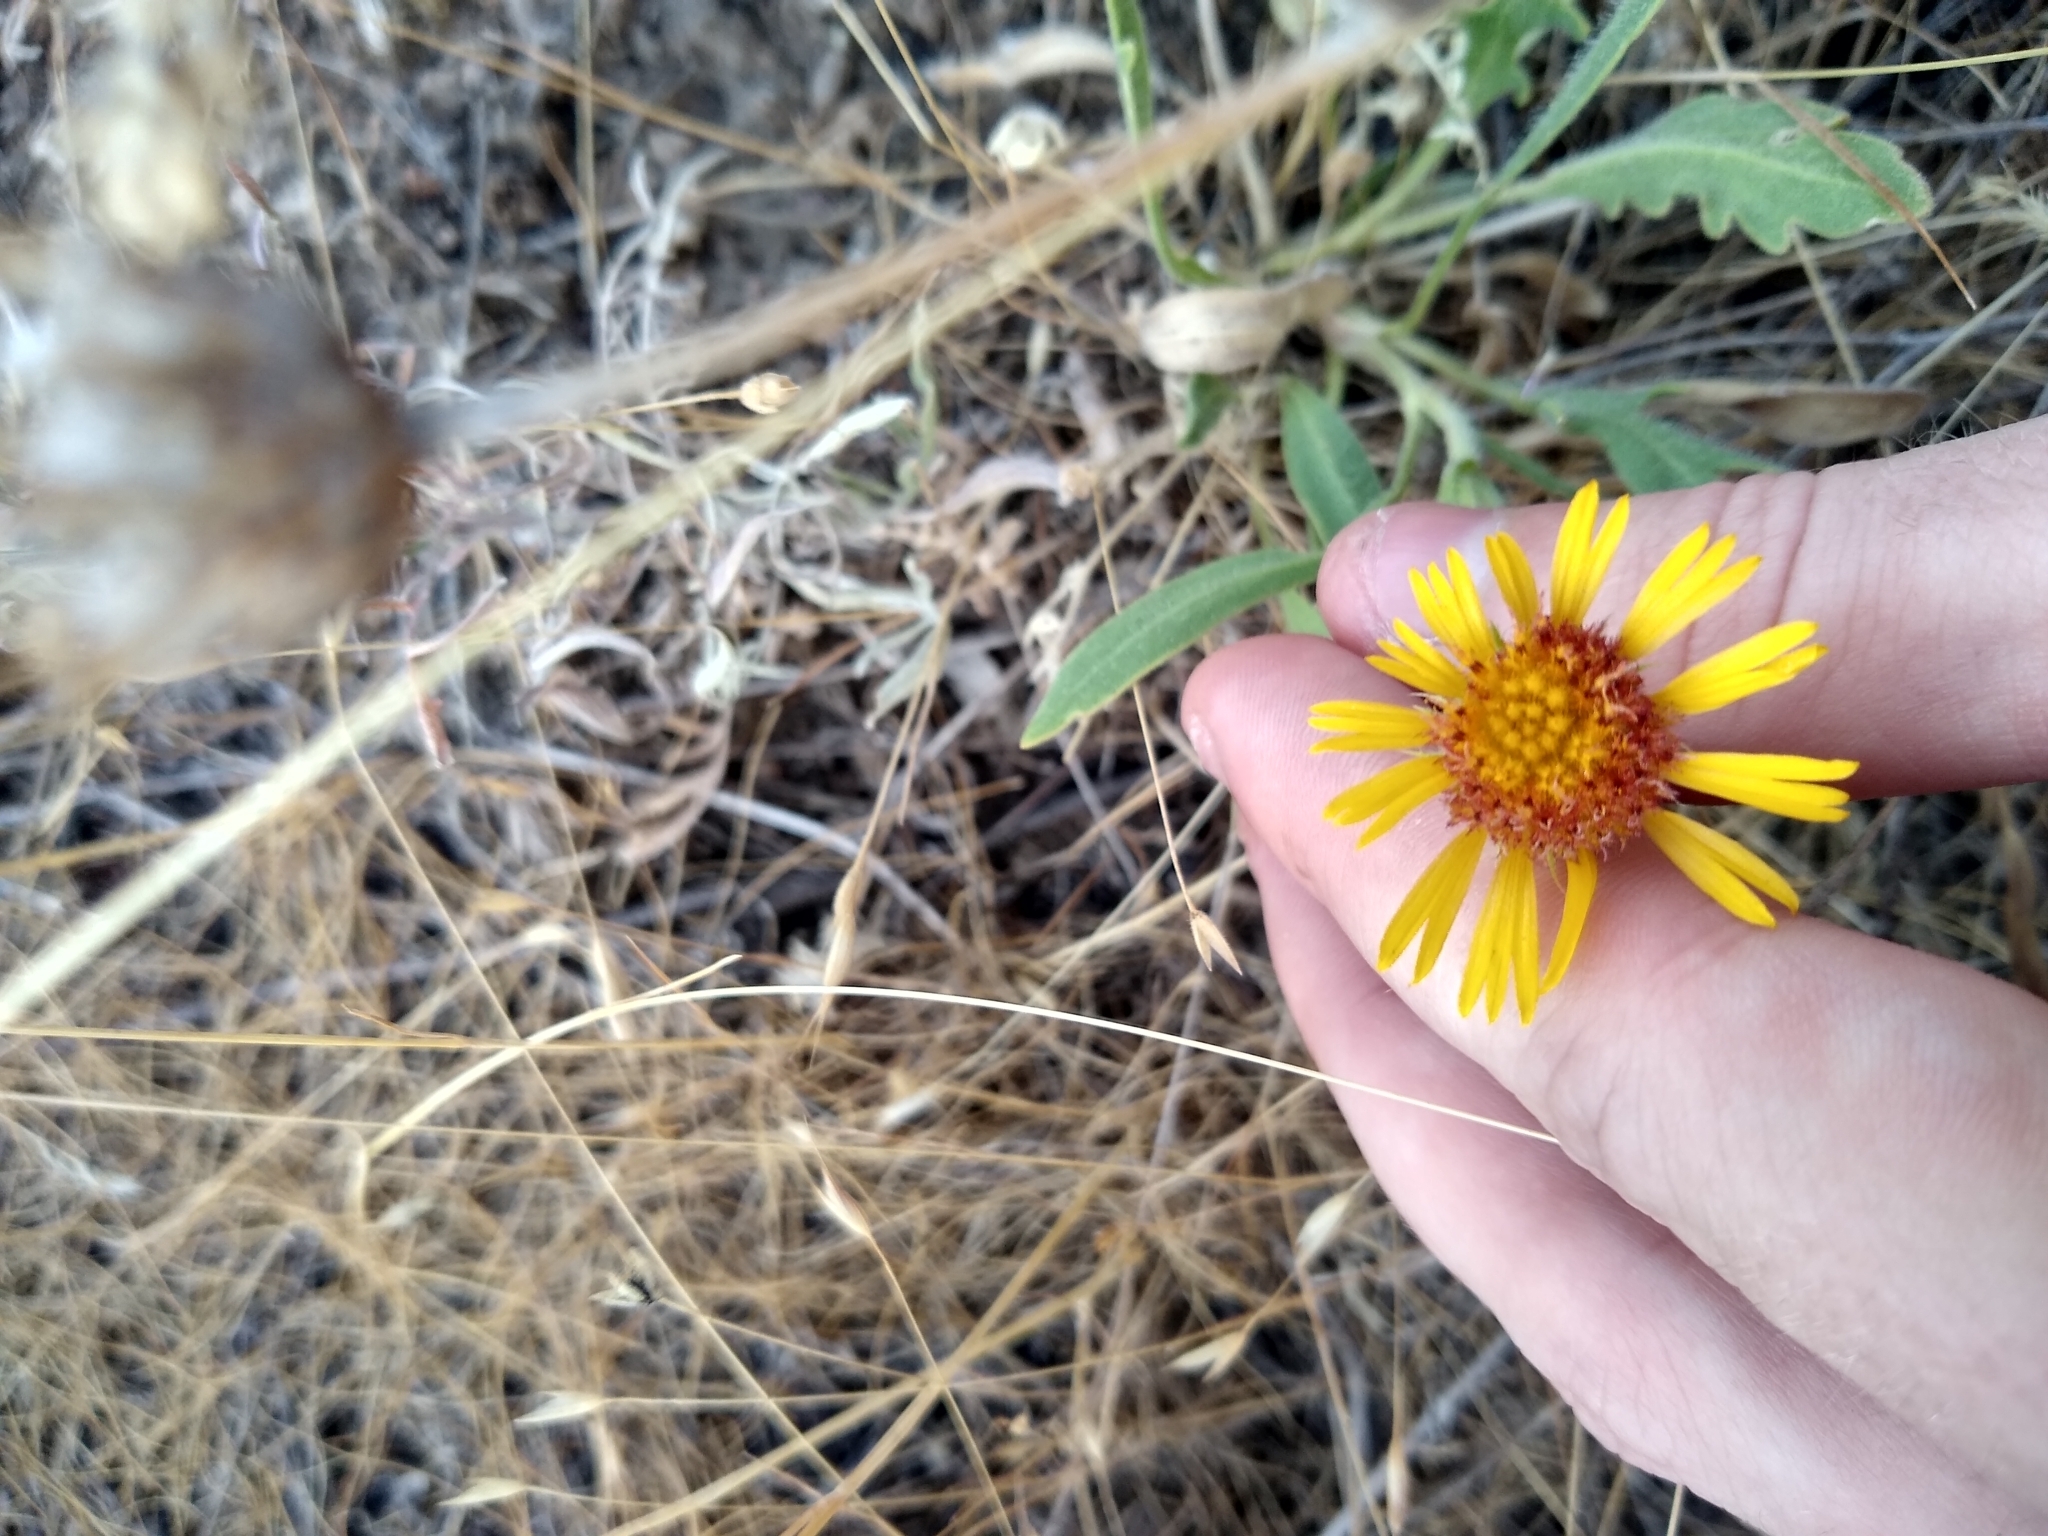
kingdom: Plantae
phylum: Tracheophyta
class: Magnoliopsida
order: Asterales
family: Asteraceae
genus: Gaillardia
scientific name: Gaillardia aristata
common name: Blanket-flower
